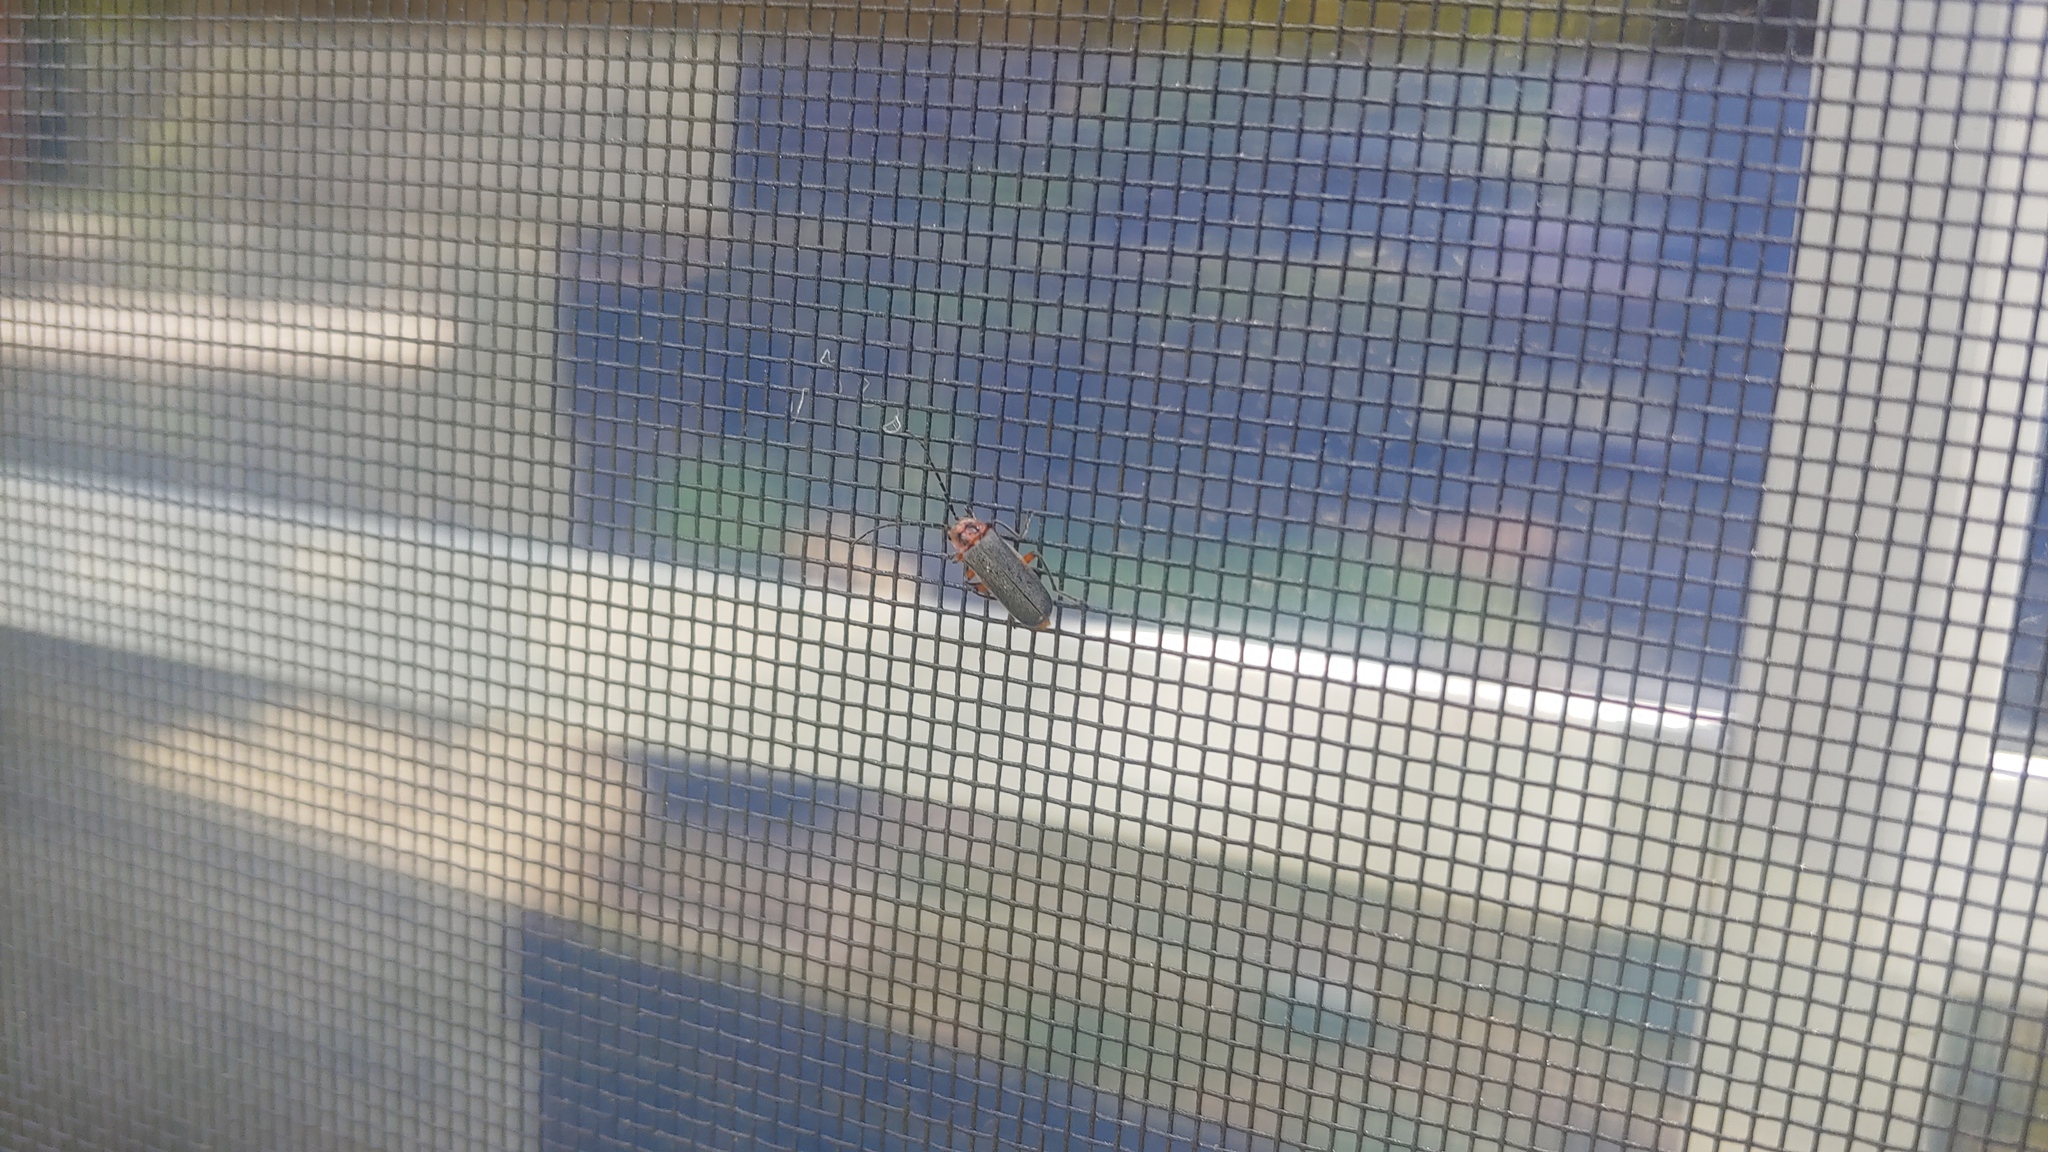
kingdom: Animalia
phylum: Arthropoda
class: Insecta
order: Coleoptera
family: Cantharidae
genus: Atalantycha
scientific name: Atalantycha bilineata
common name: Two-lined leatherwing
